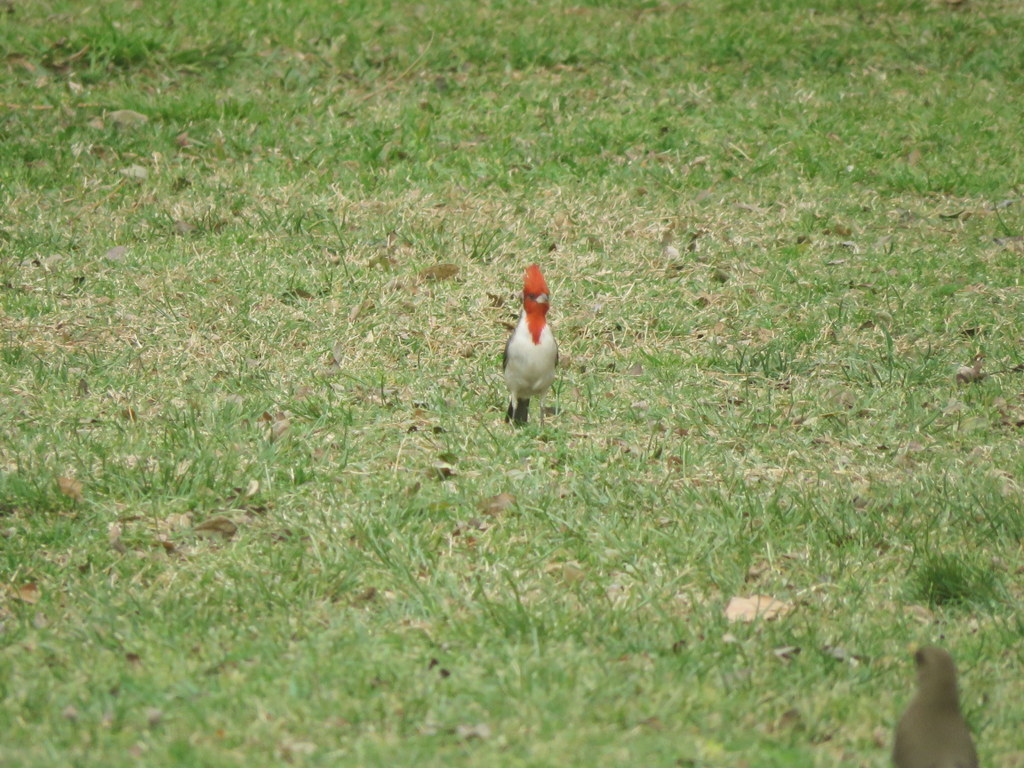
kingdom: Animalia
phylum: Chordata
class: Aves
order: Passeriformes
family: Thraupidae
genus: Paroaria
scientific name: Paroaria coronata
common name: Red-crested cardinal
